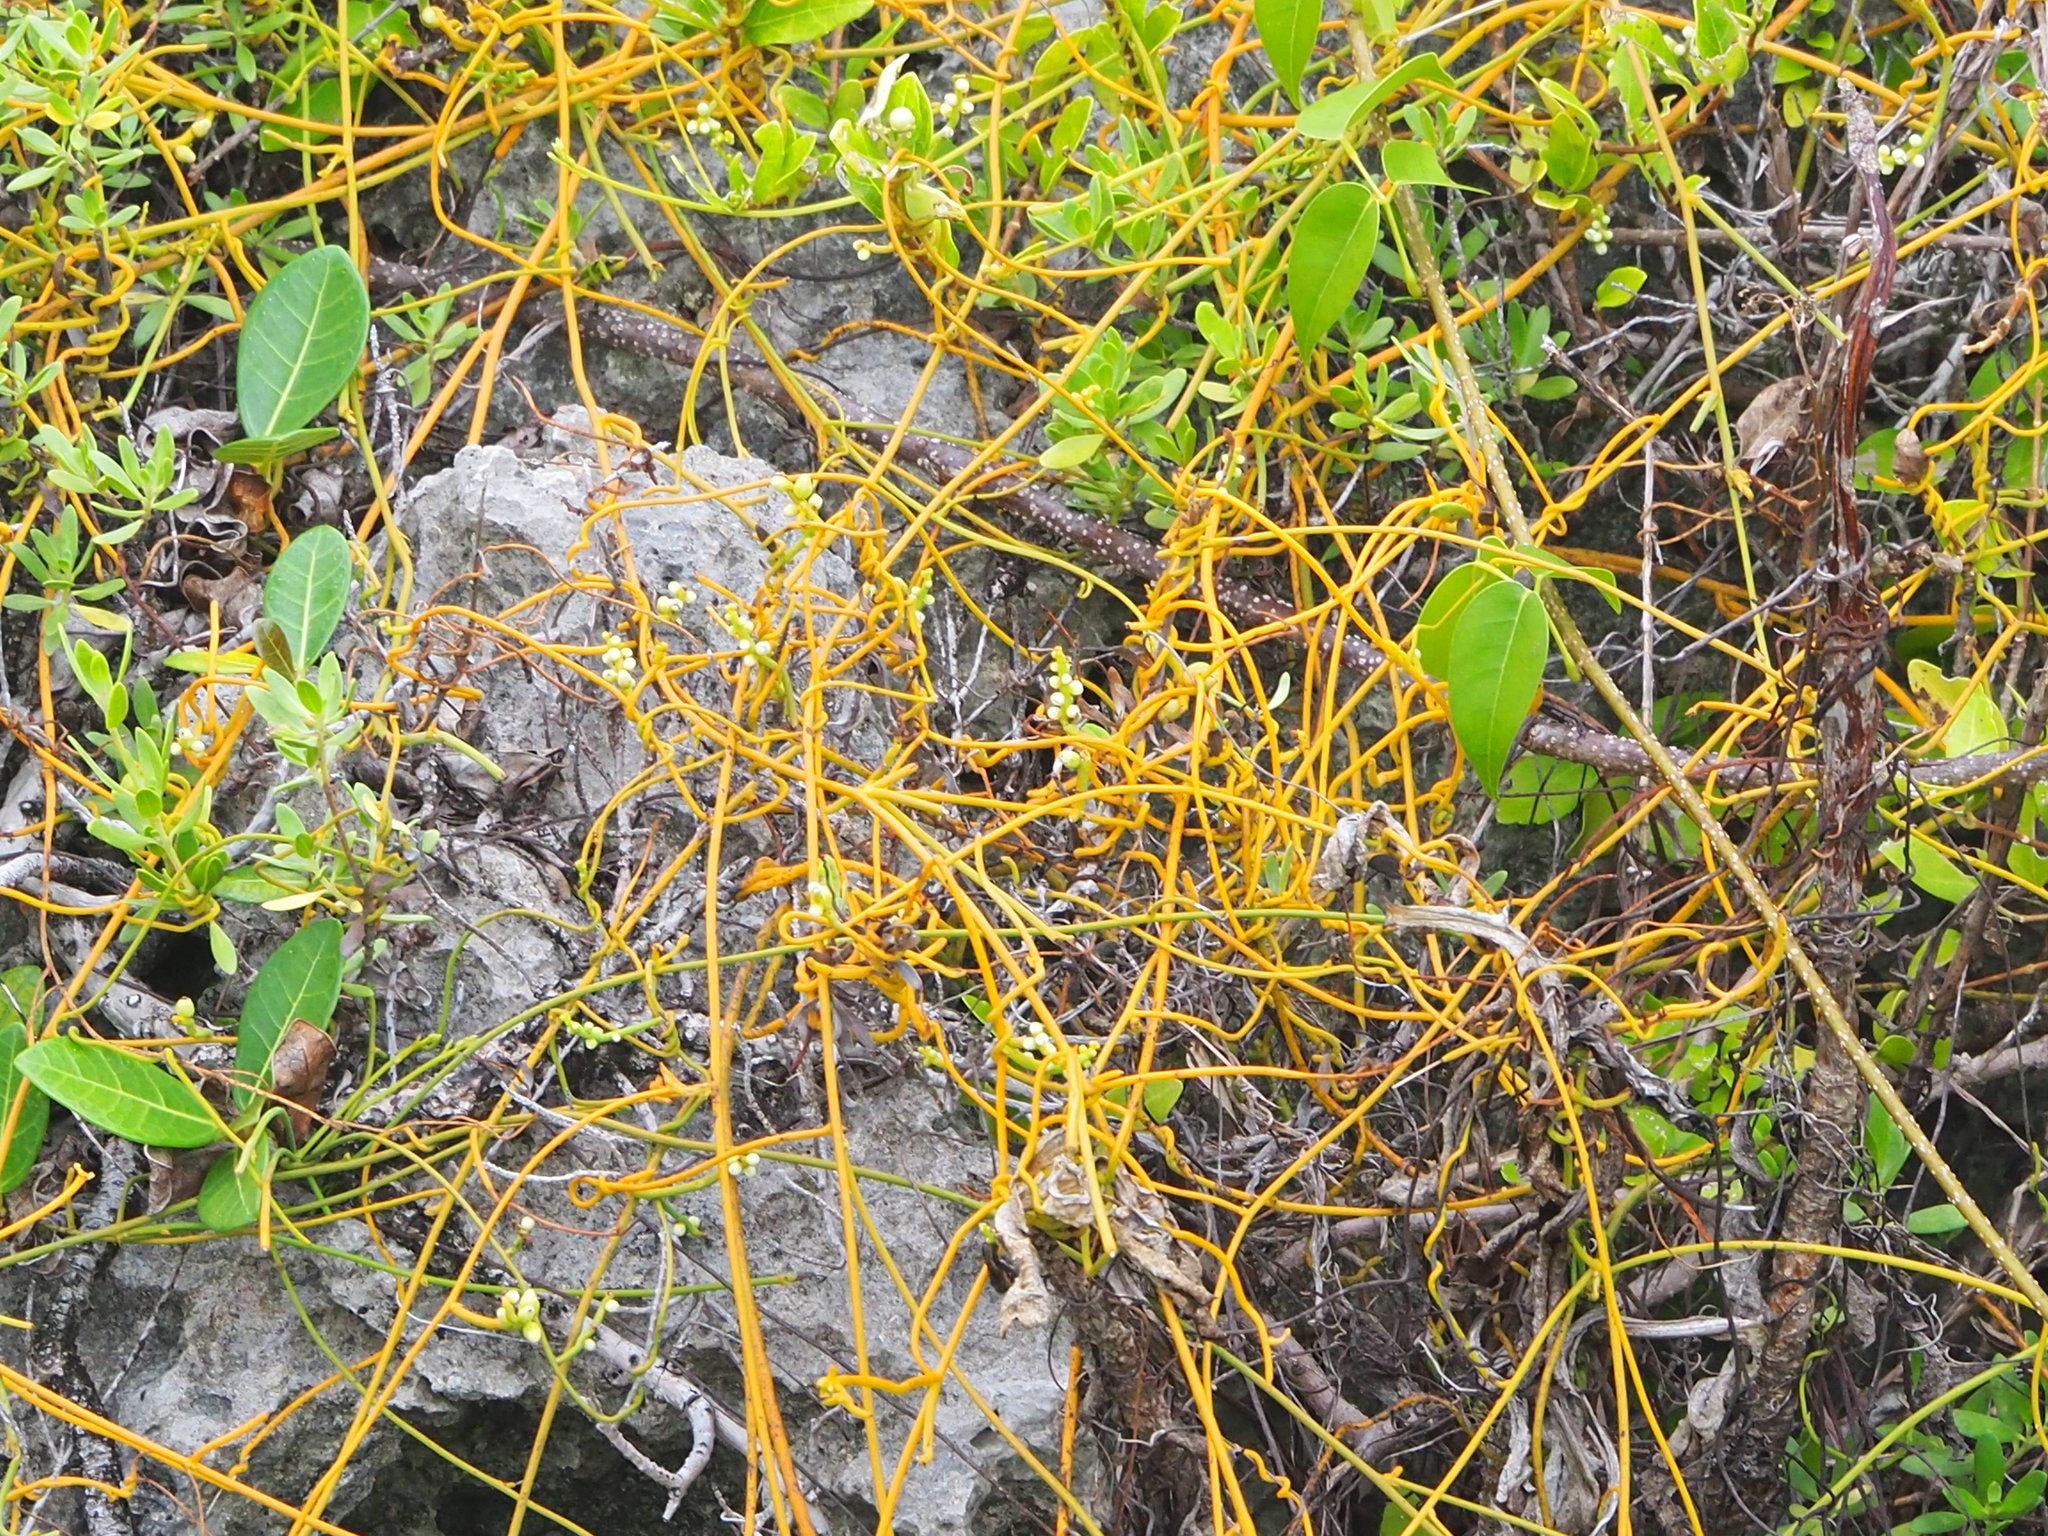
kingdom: Plantae
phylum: Tracheophyta
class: Magnoliopsida
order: Laurales
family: Lauraceae
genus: Cassytha
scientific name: Cassytha filiformis
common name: Dodder-laurel
